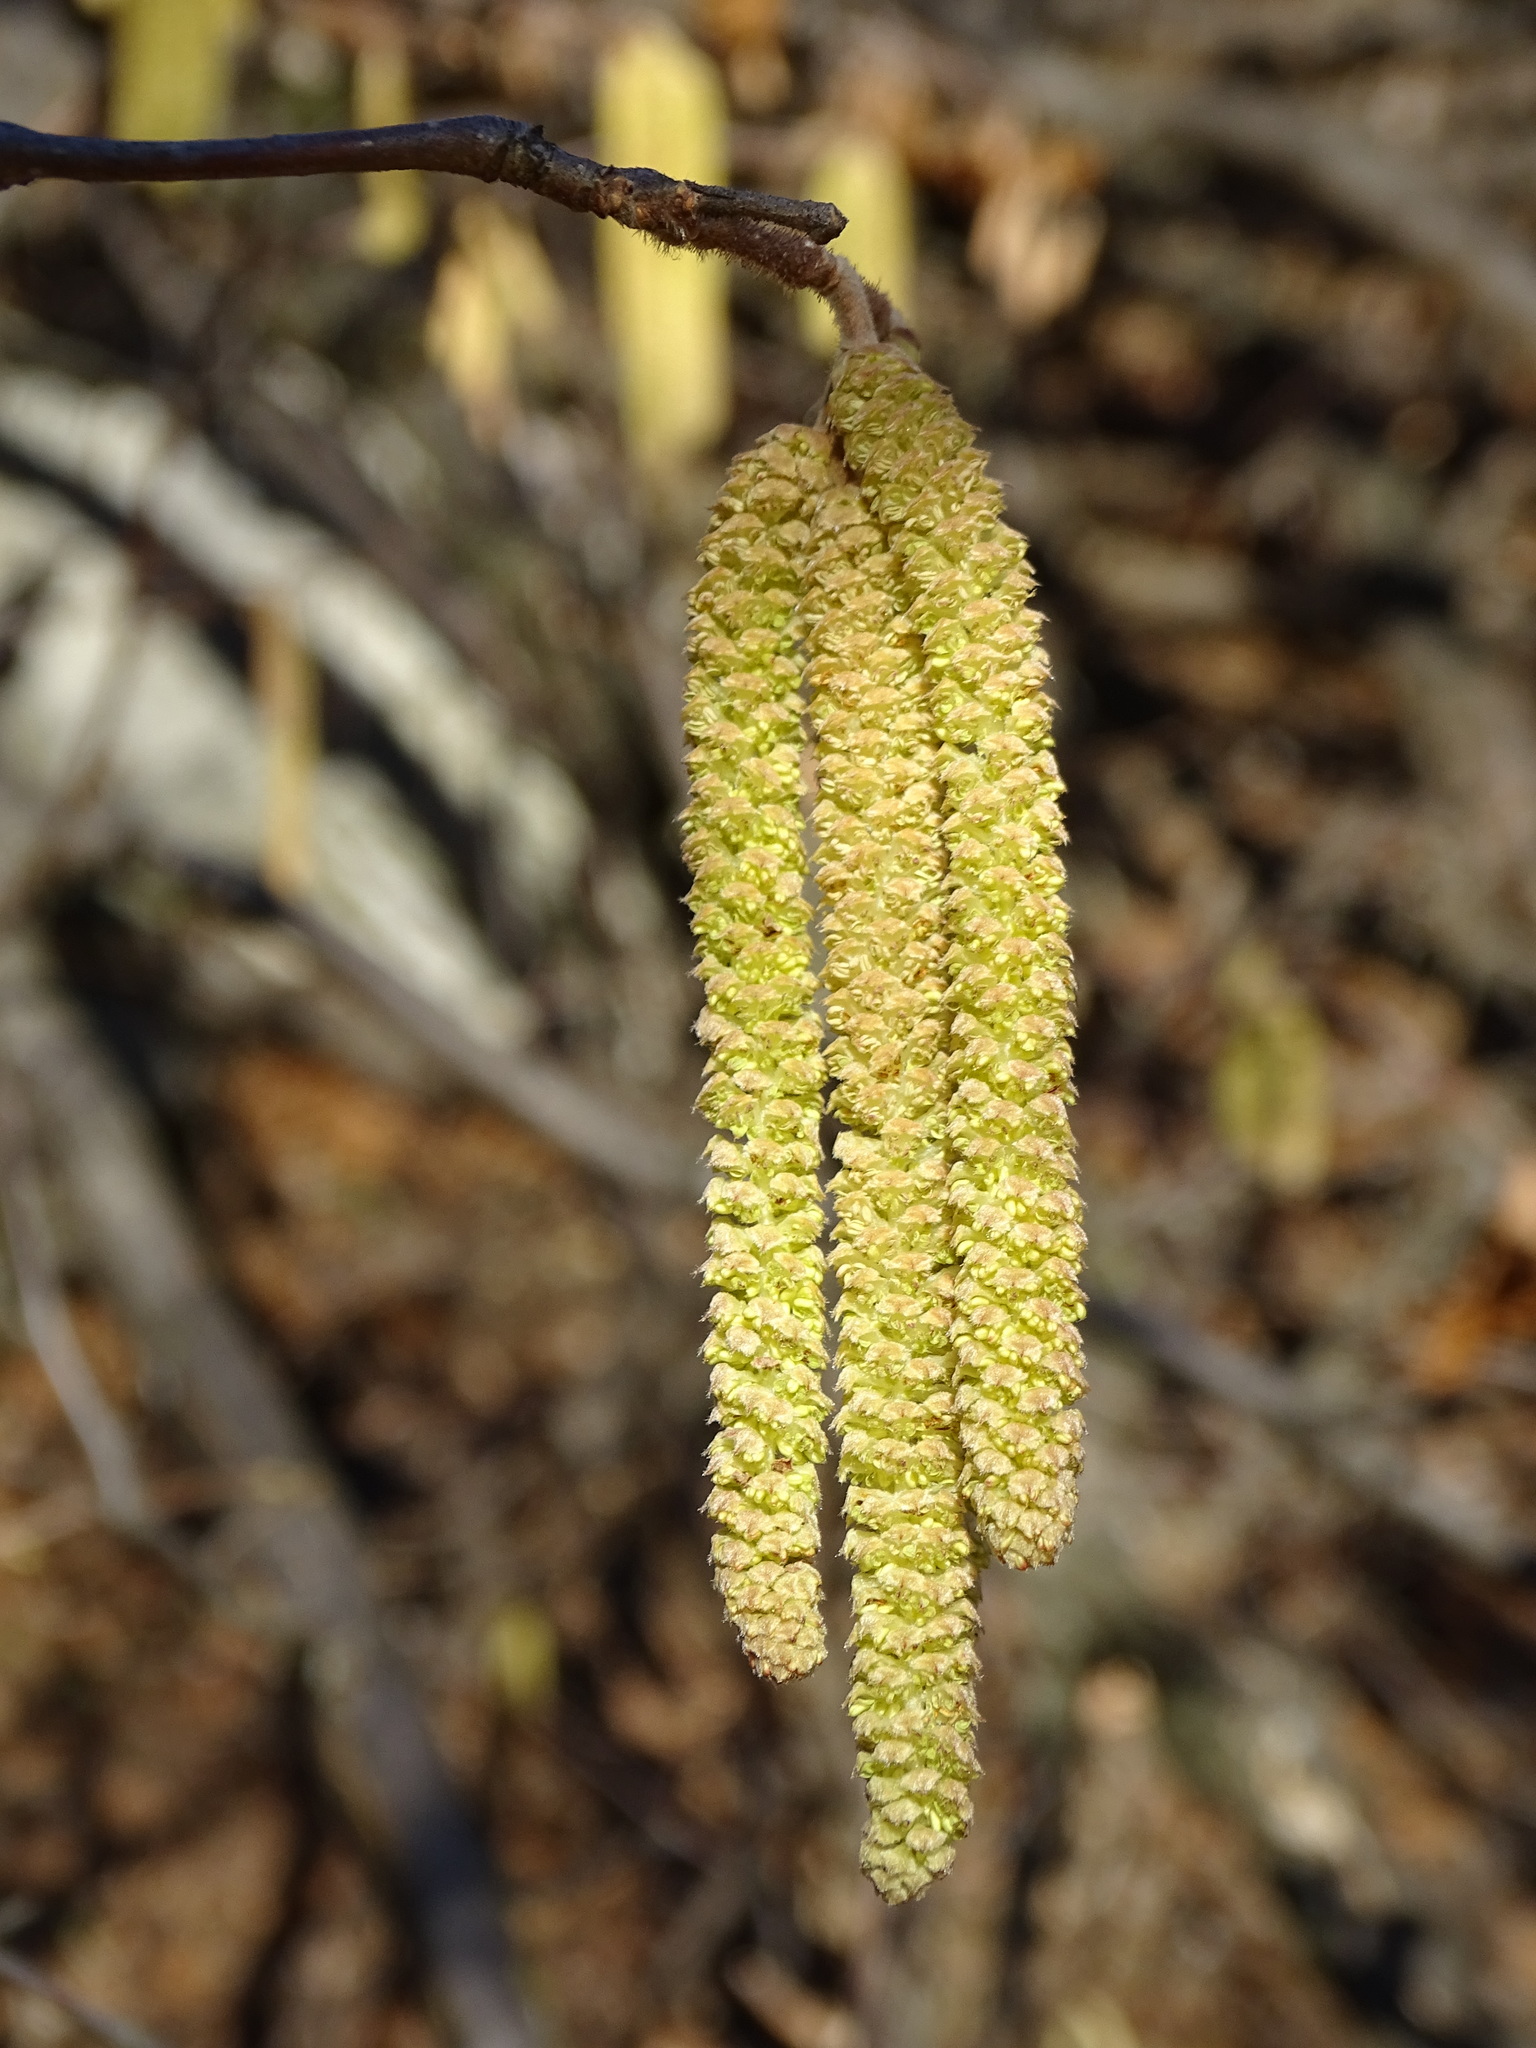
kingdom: Plantae
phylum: Tracheophyta
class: Magnoliopsida
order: Fagales
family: Betulaceae
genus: Corylus
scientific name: Corylus avellana
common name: European hazel
